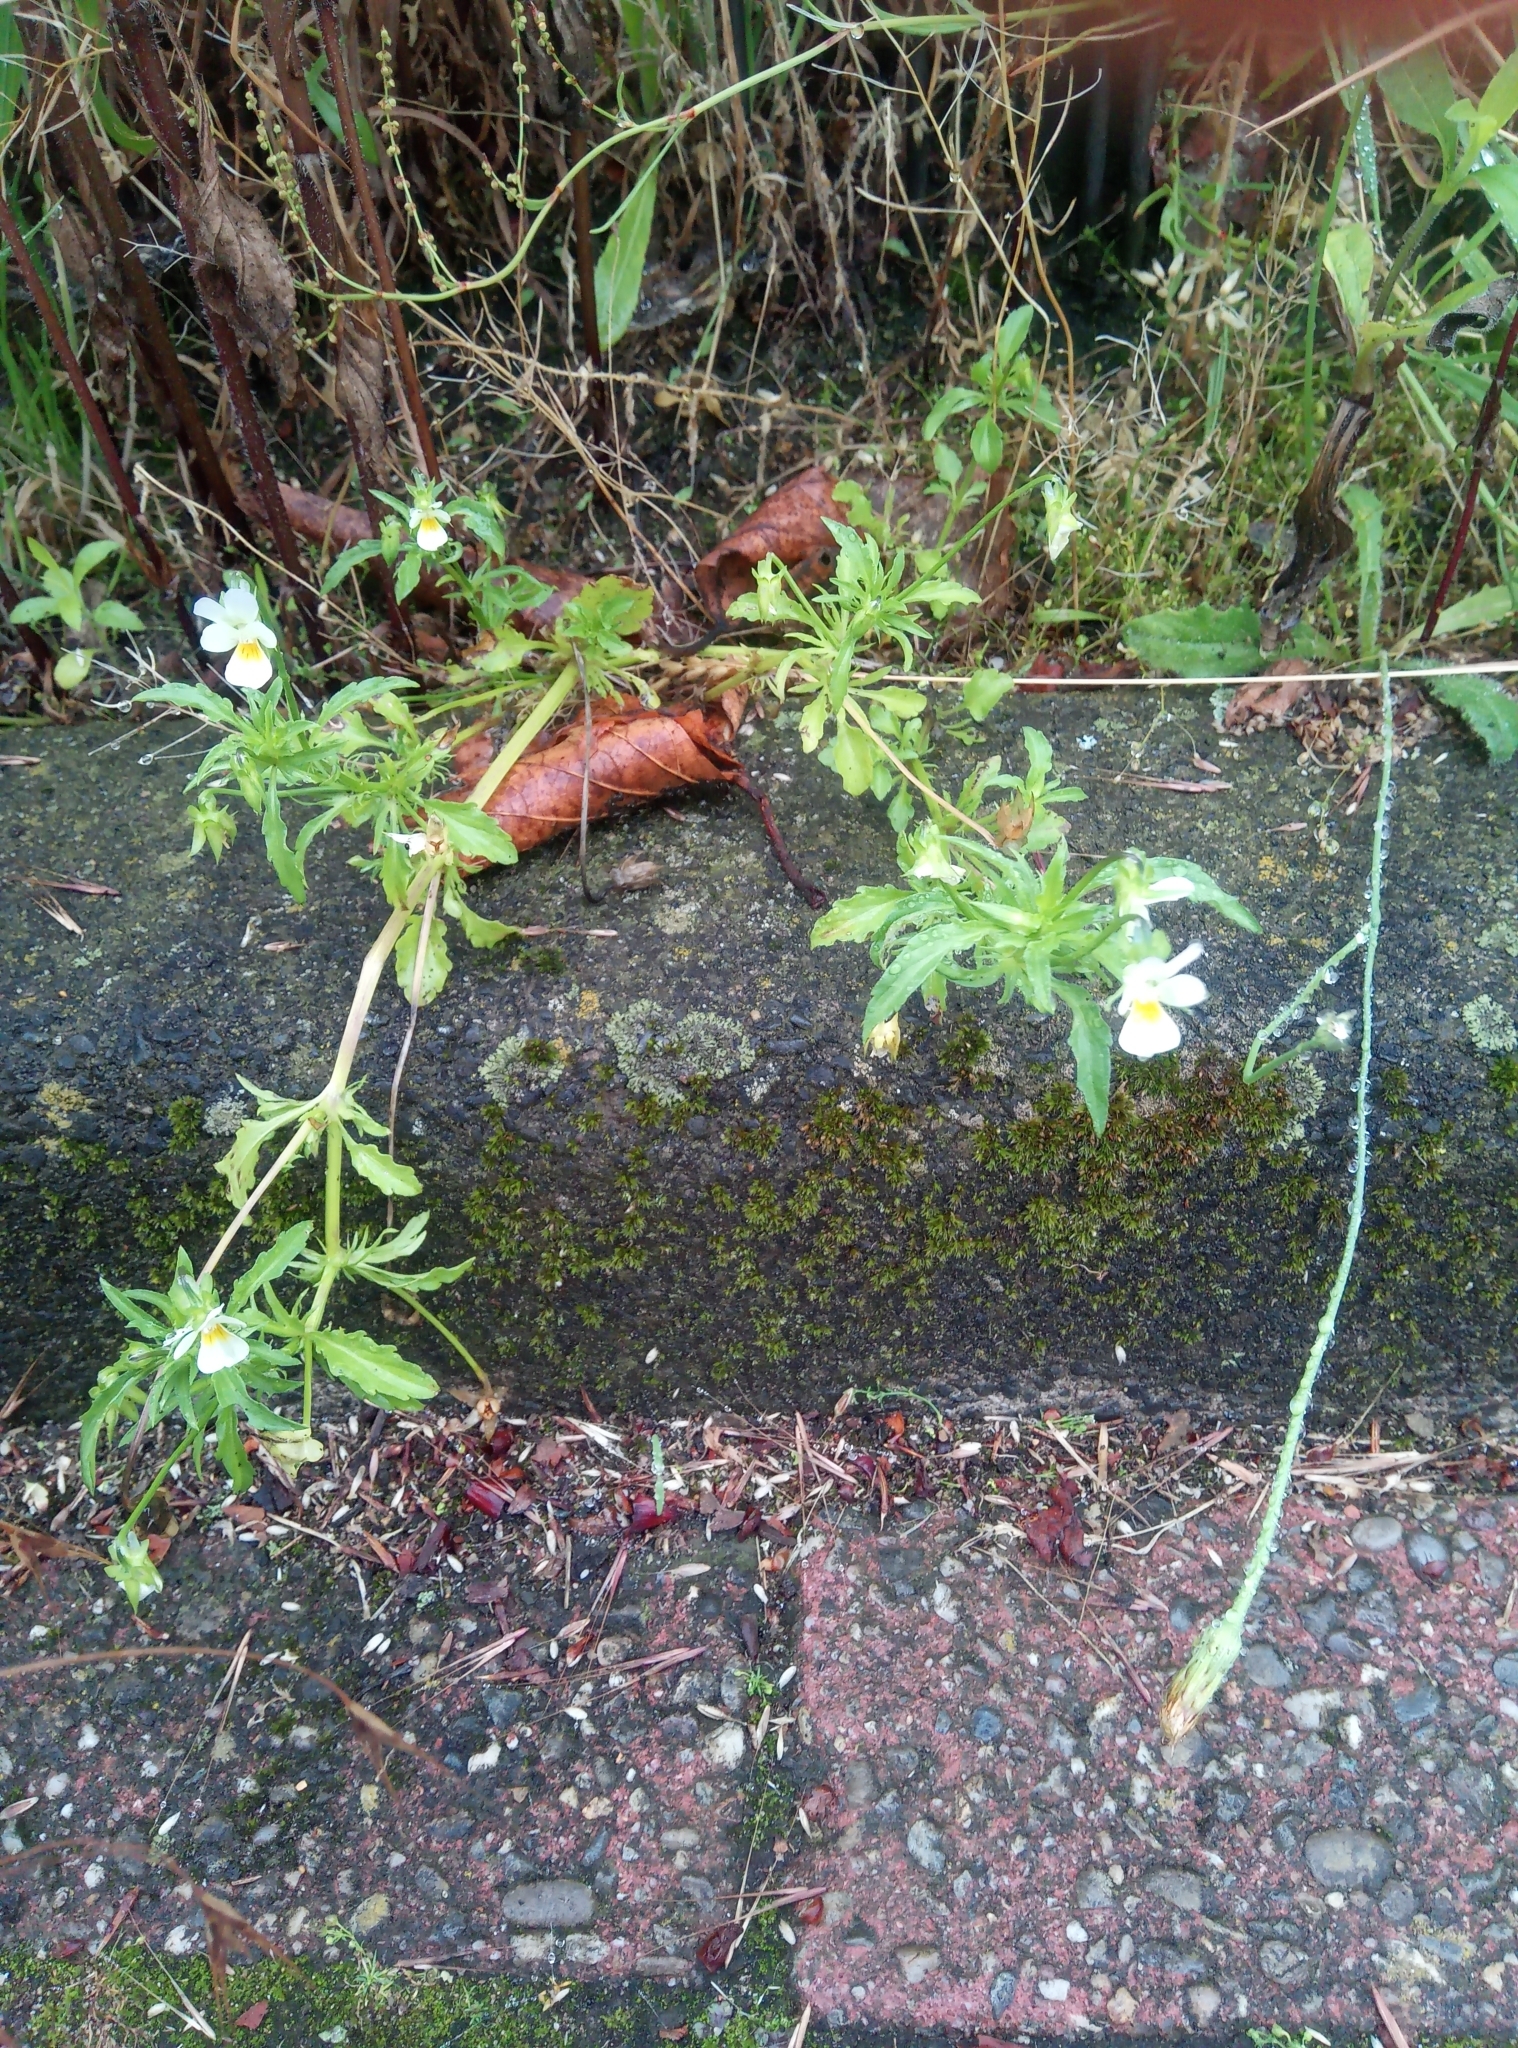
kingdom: Plantae
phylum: Tracheophyta
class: Magnoliopsida
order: Malpighiales
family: Violaceae
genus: Viola
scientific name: Viola arvensis
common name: Field pansy
